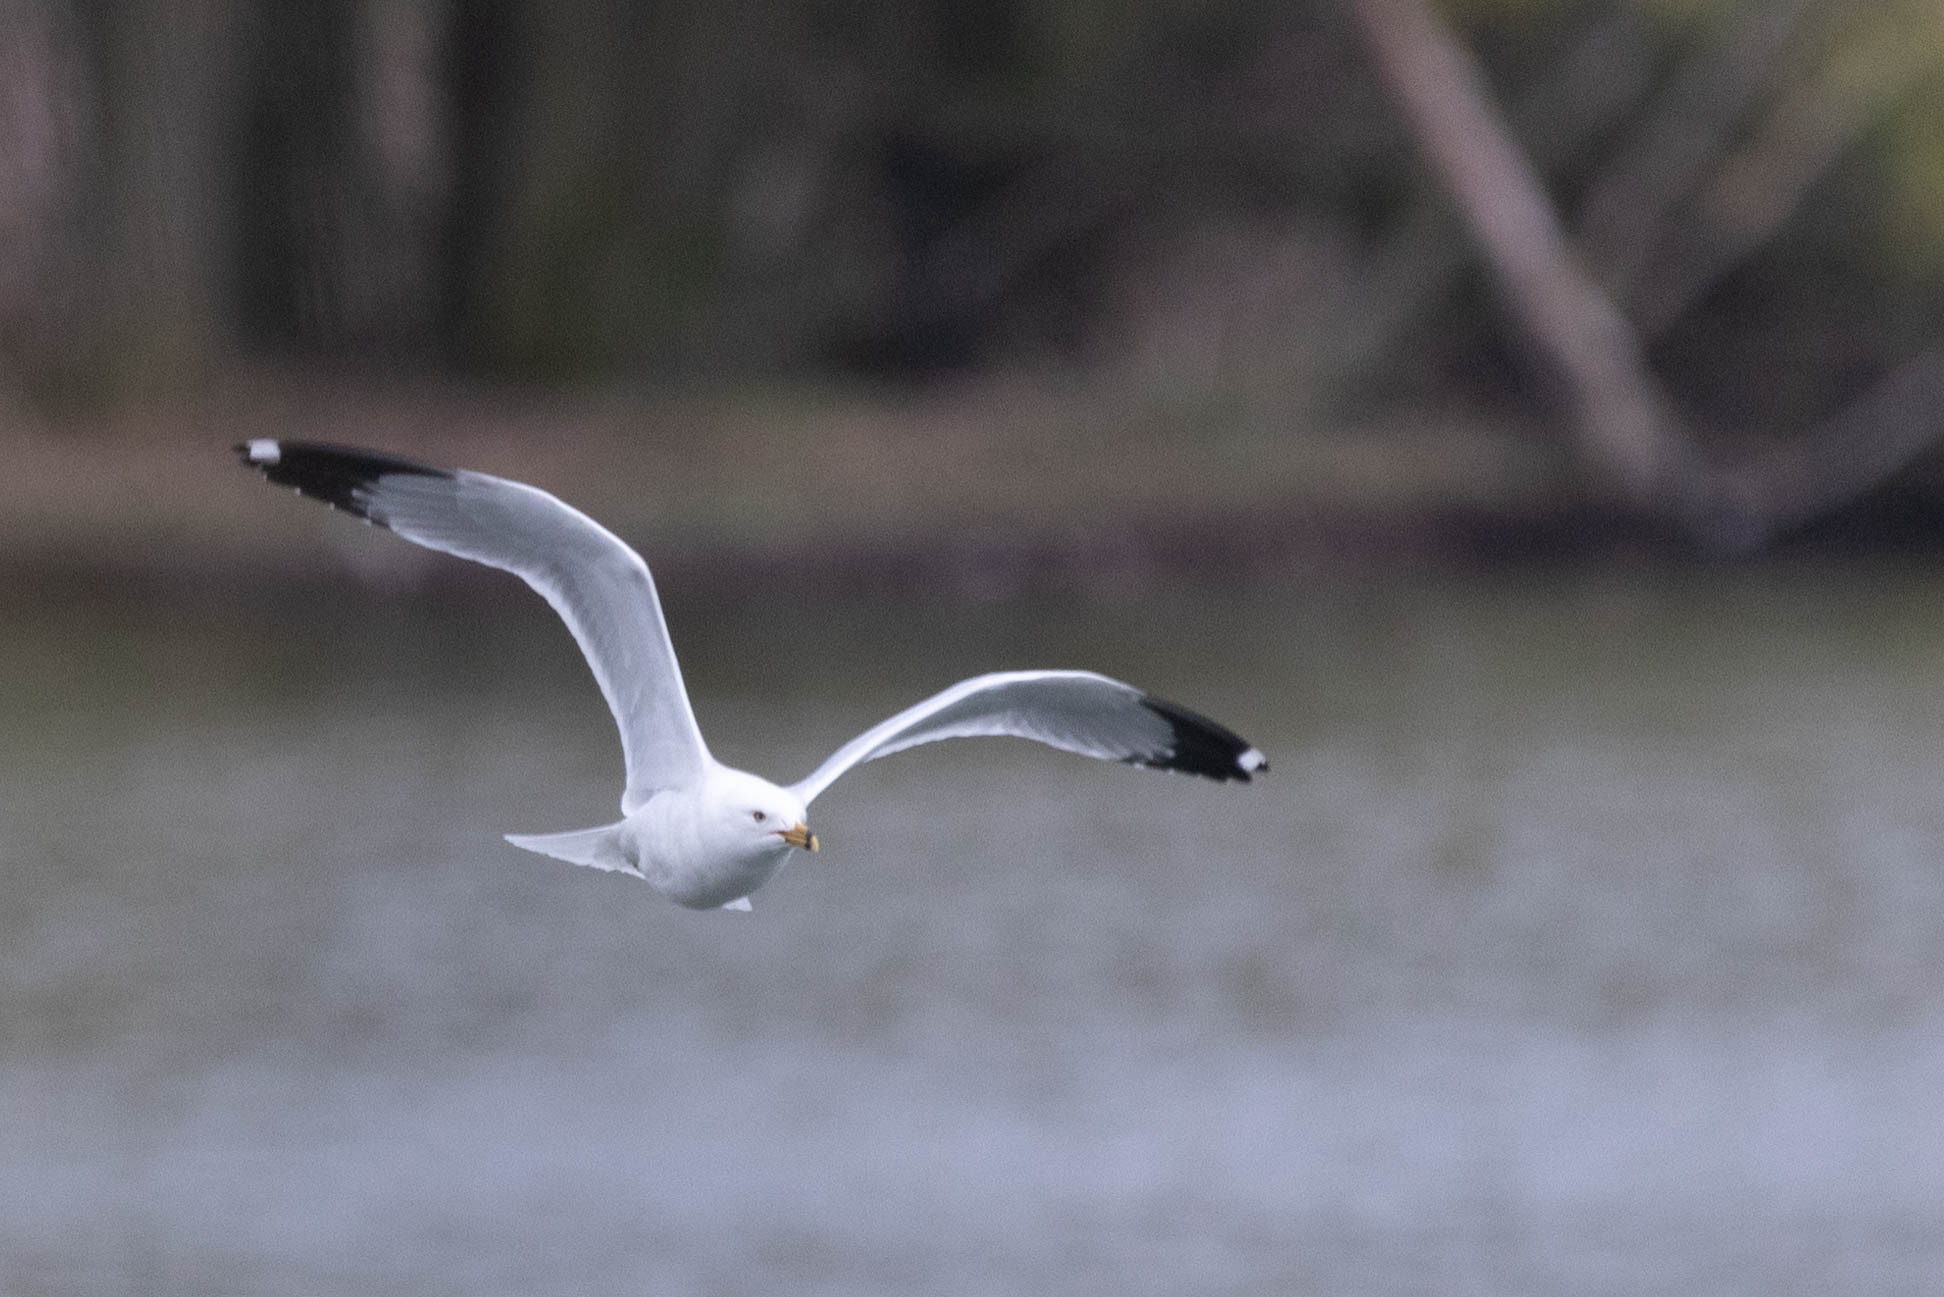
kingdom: Animalia
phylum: Chordata
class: Aves
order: Charadriiformes
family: Laridae
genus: Larus
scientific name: Larus delawarensis
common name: Ring-billed gull
